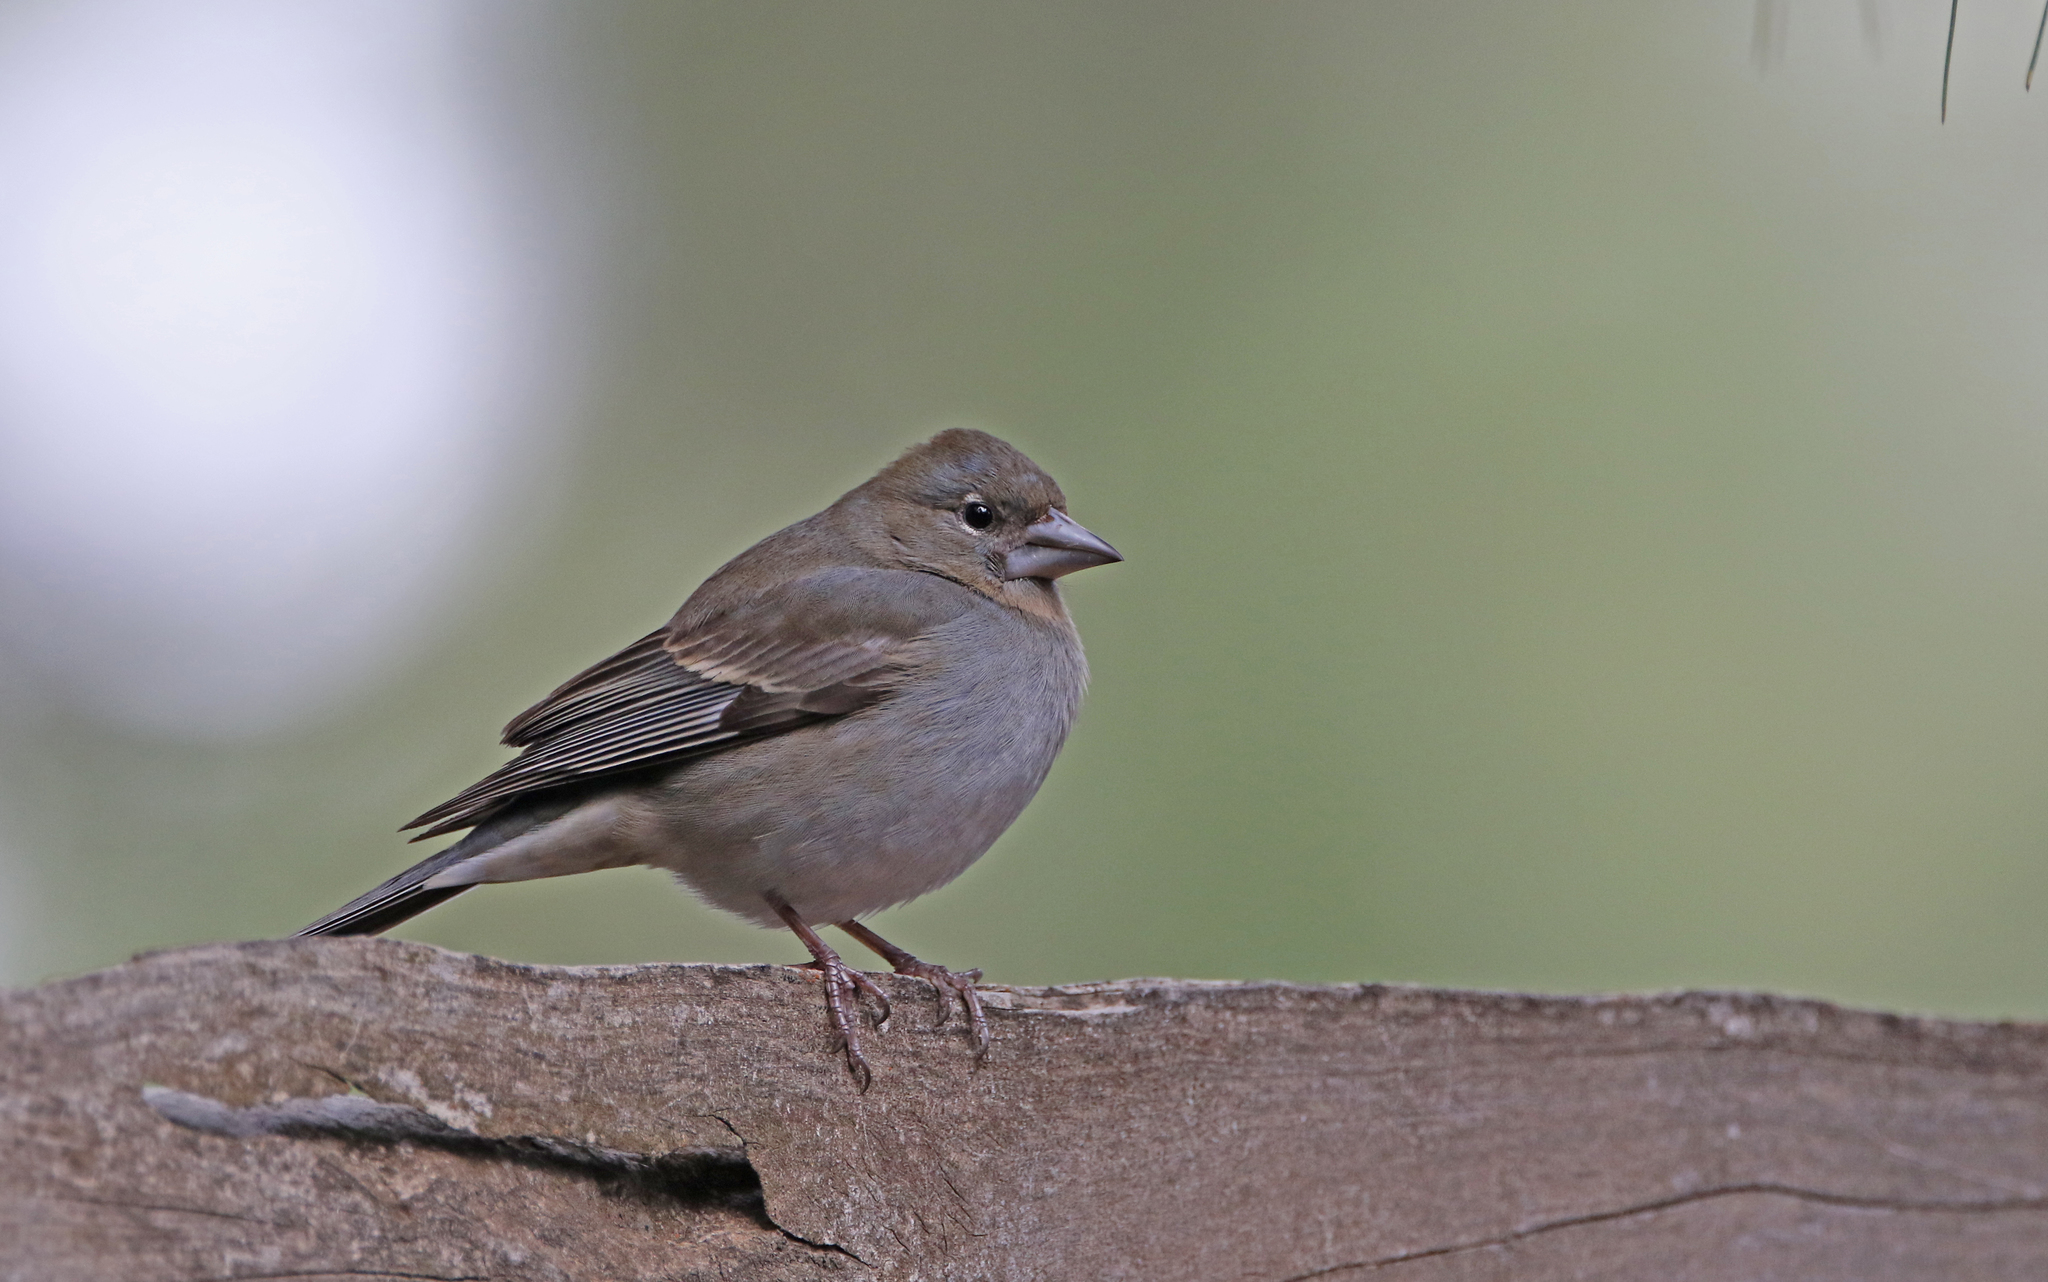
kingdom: Animalia
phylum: Chordata
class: Aves
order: Passeriformes
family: Fringillidae
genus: Fringilla
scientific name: Fringilla teydea
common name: Blue chaffinch
